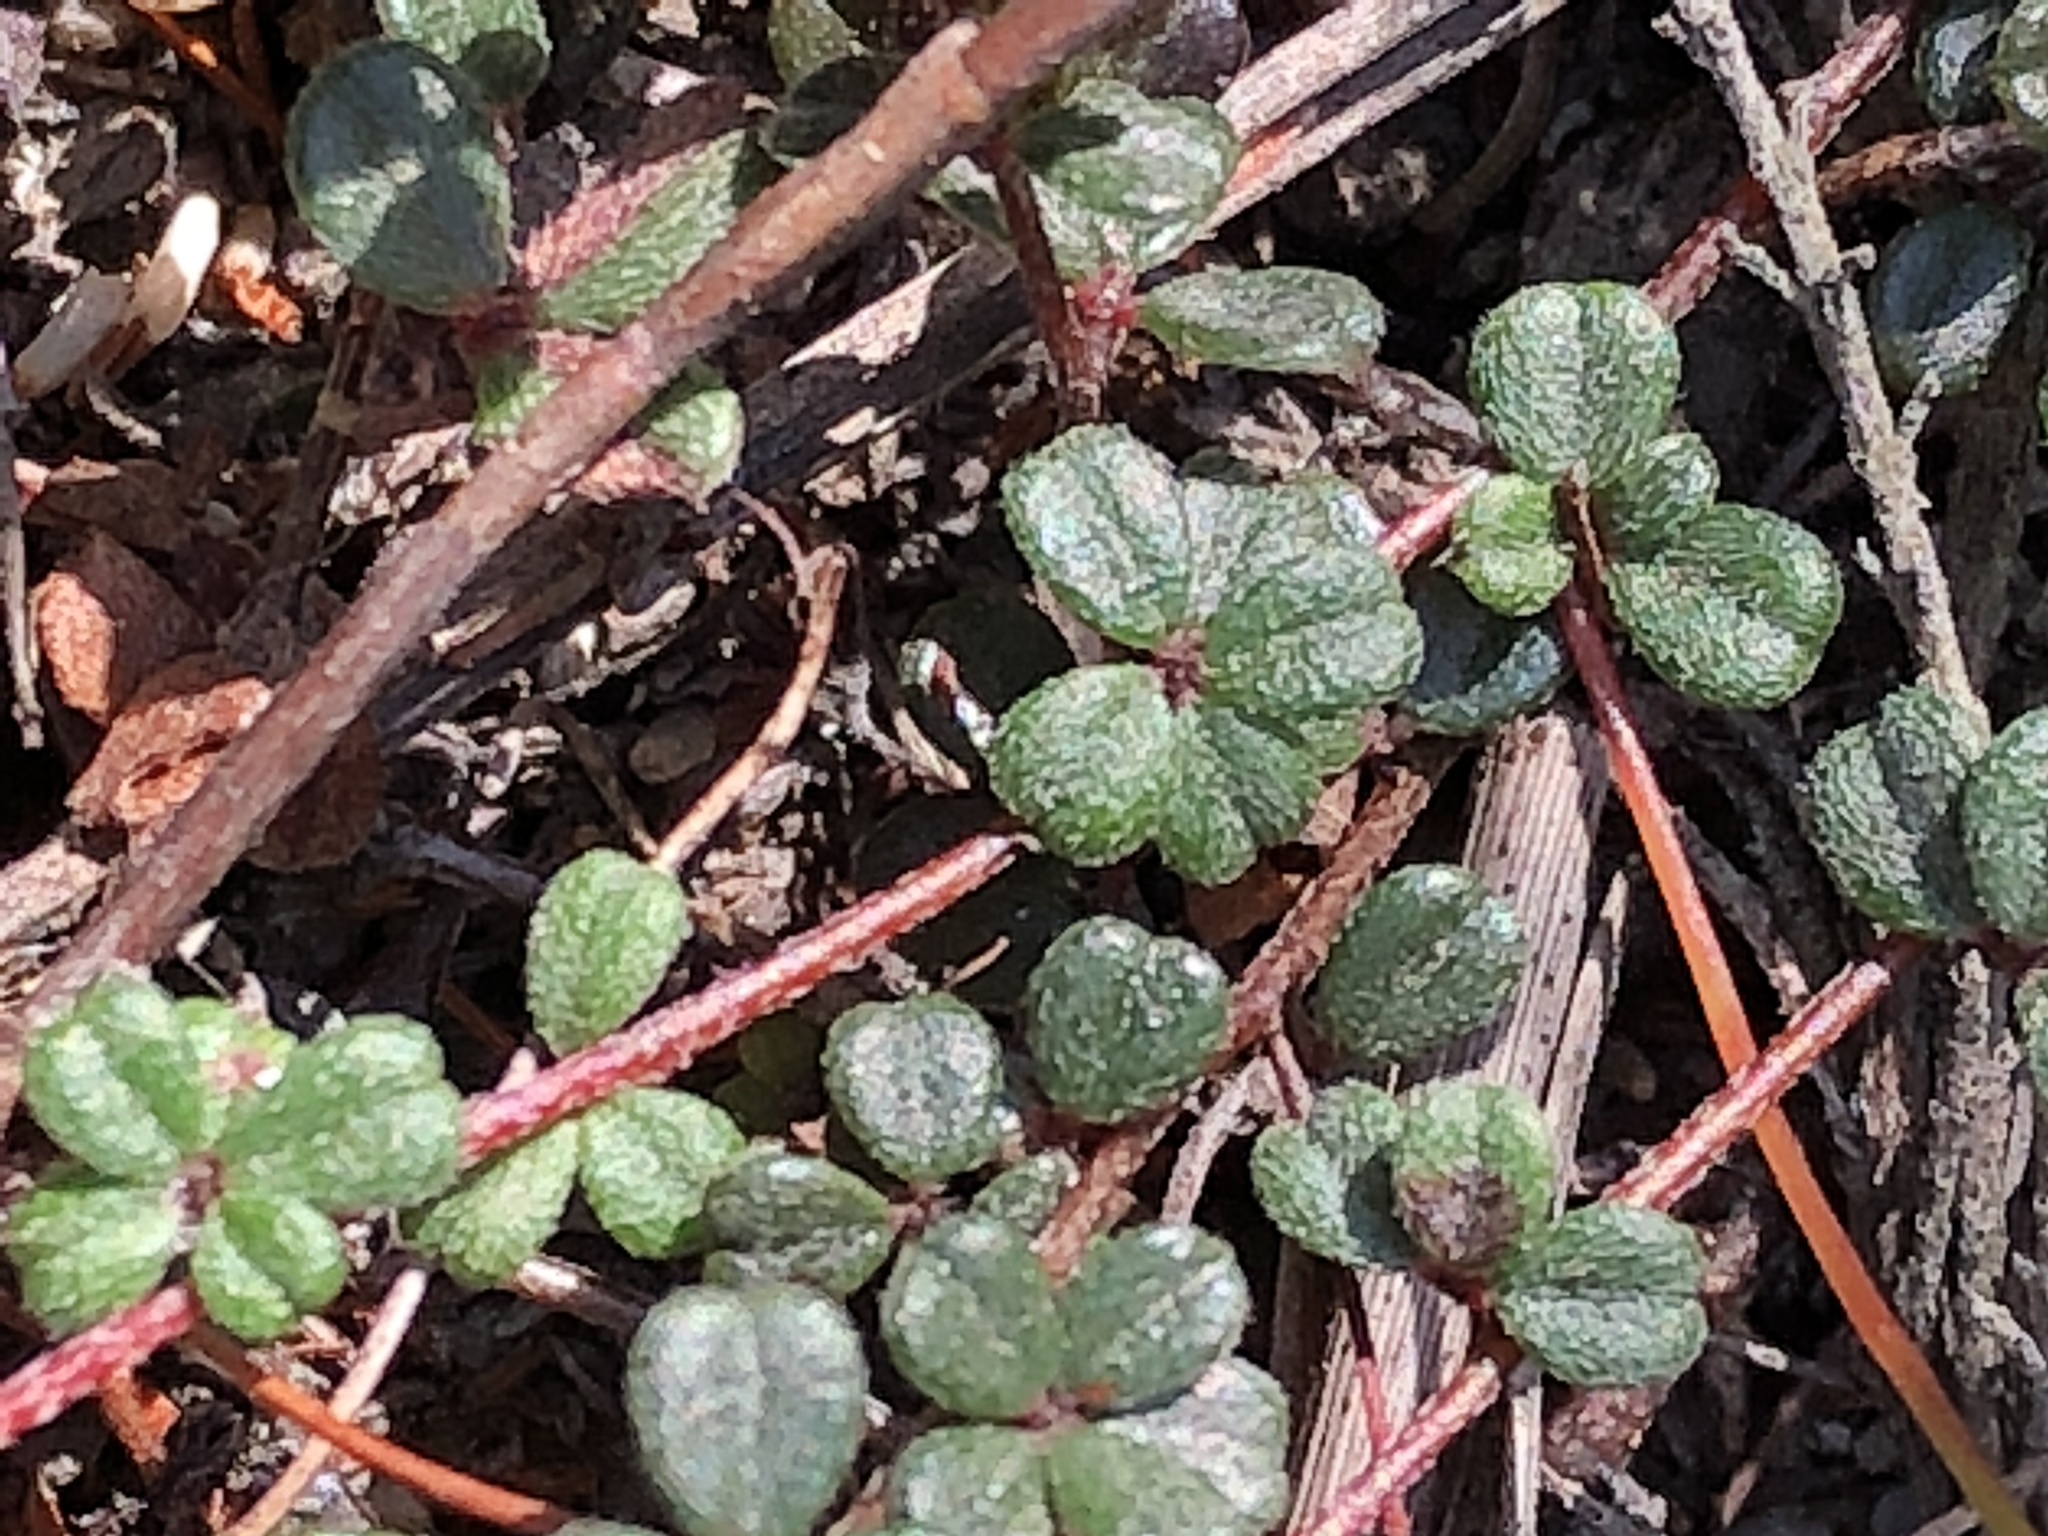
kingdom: Plantae
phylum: Tracheophyta
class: Magnoliopsida
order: Fabales
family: Fabaceae
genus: Indigofera
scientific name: Indigofera
